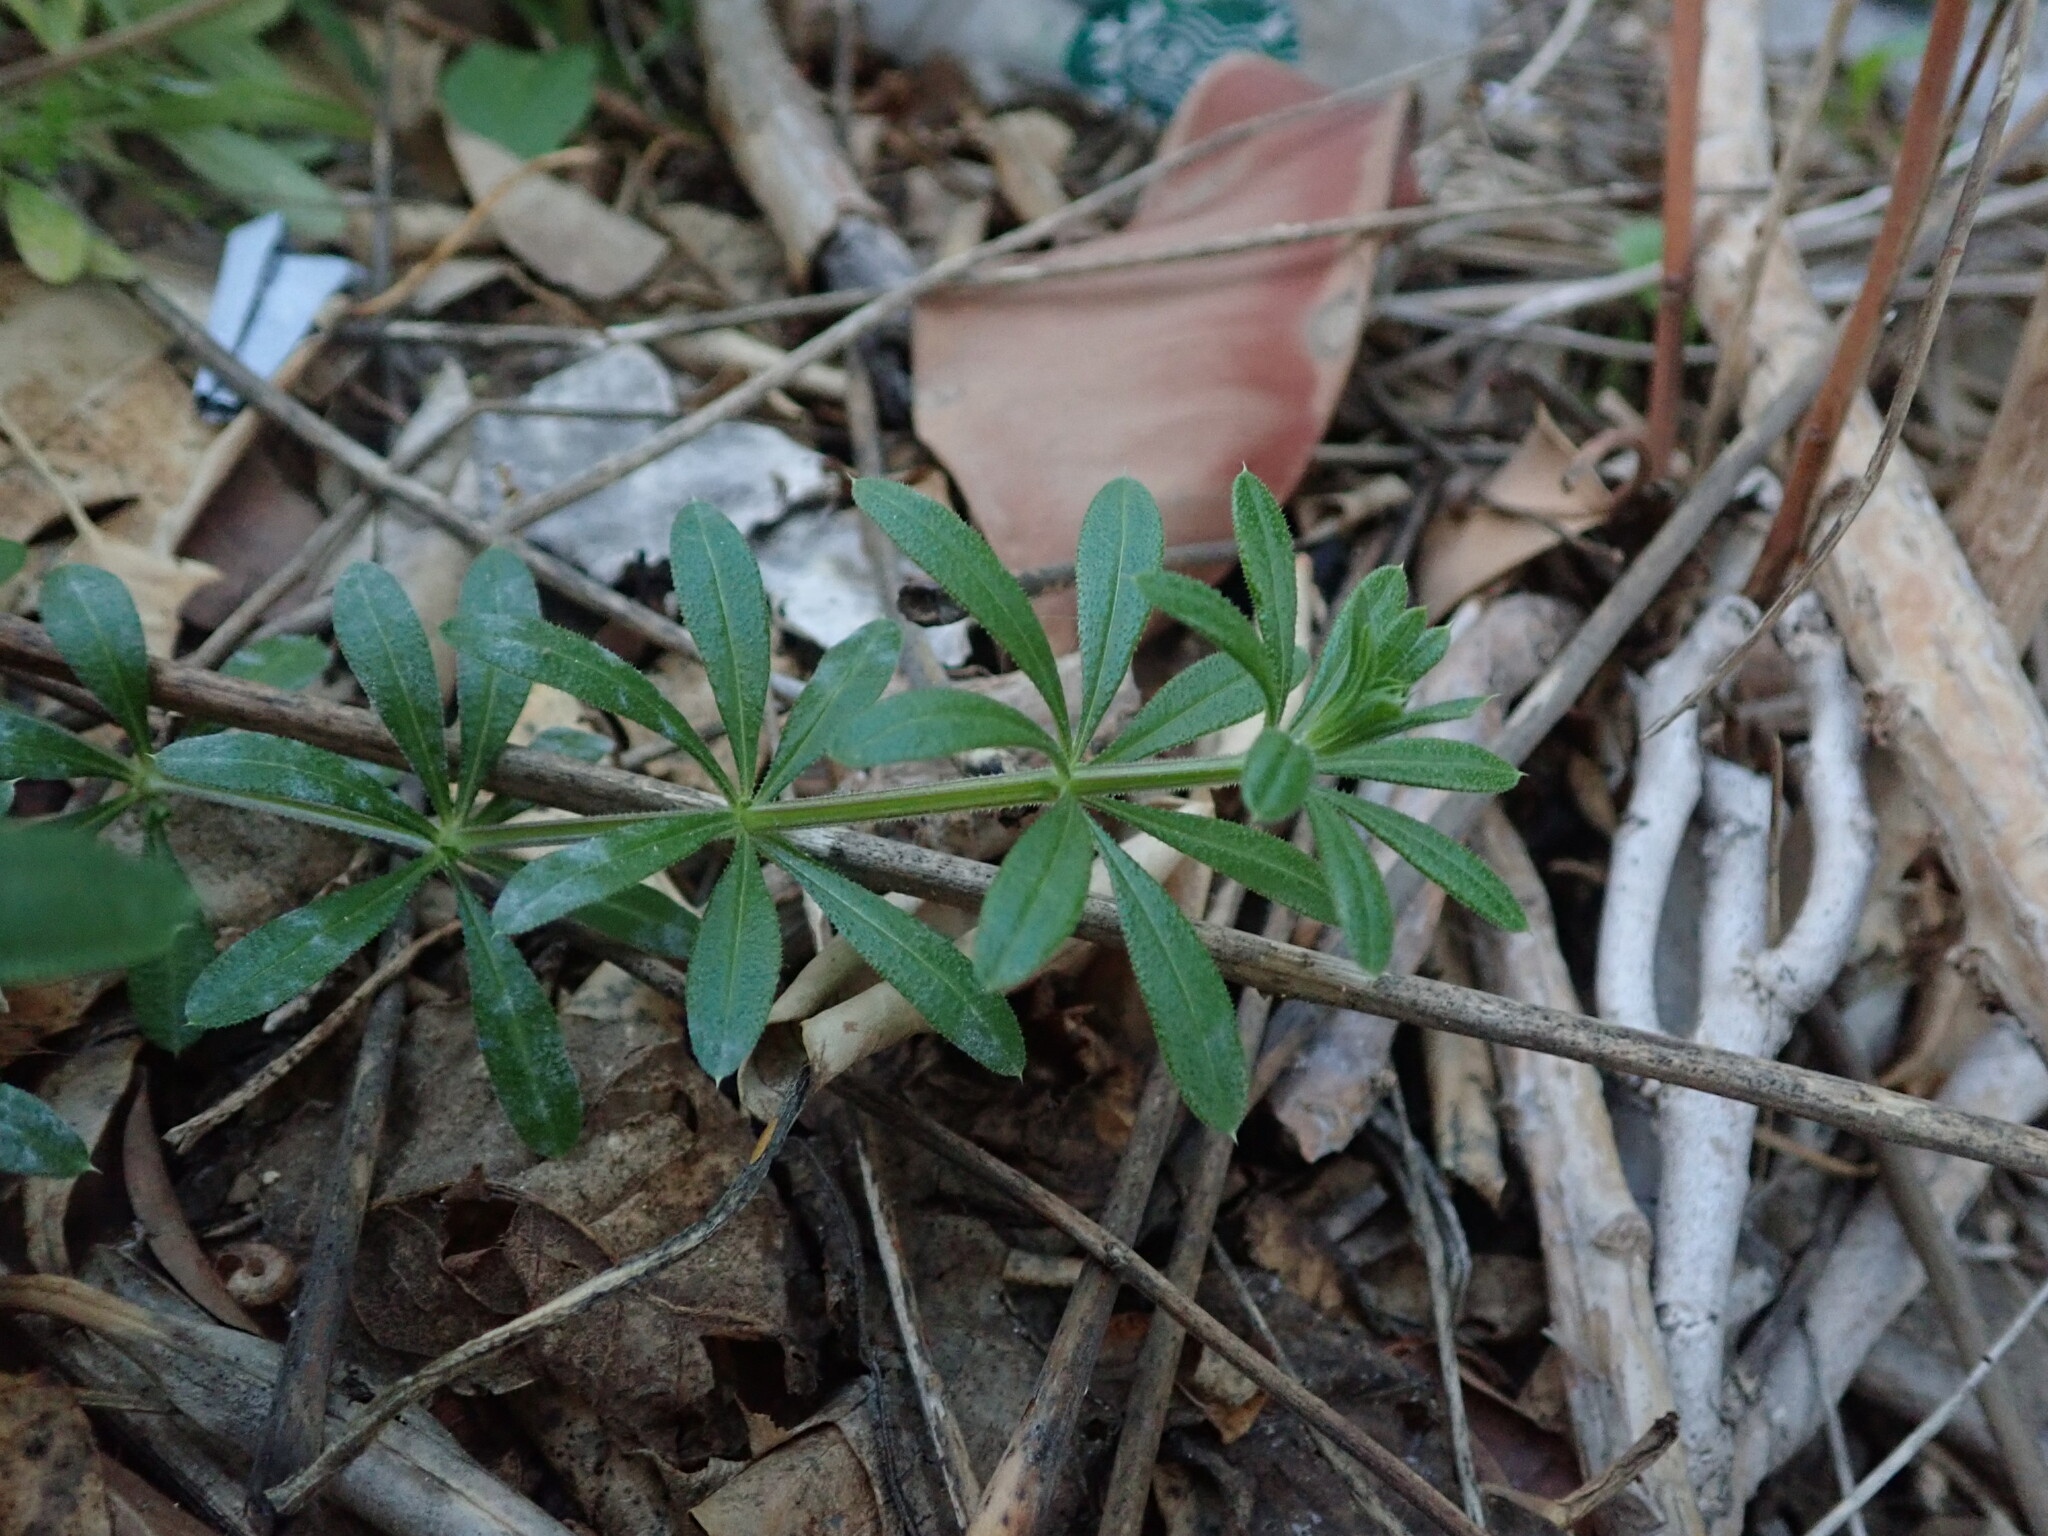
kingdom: Plantae
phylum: Tracheophyta
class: Magnoliopsida
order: Gentianales
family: Rubiaceae
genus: Galium
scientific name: Galium aparine
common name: Cleavers
